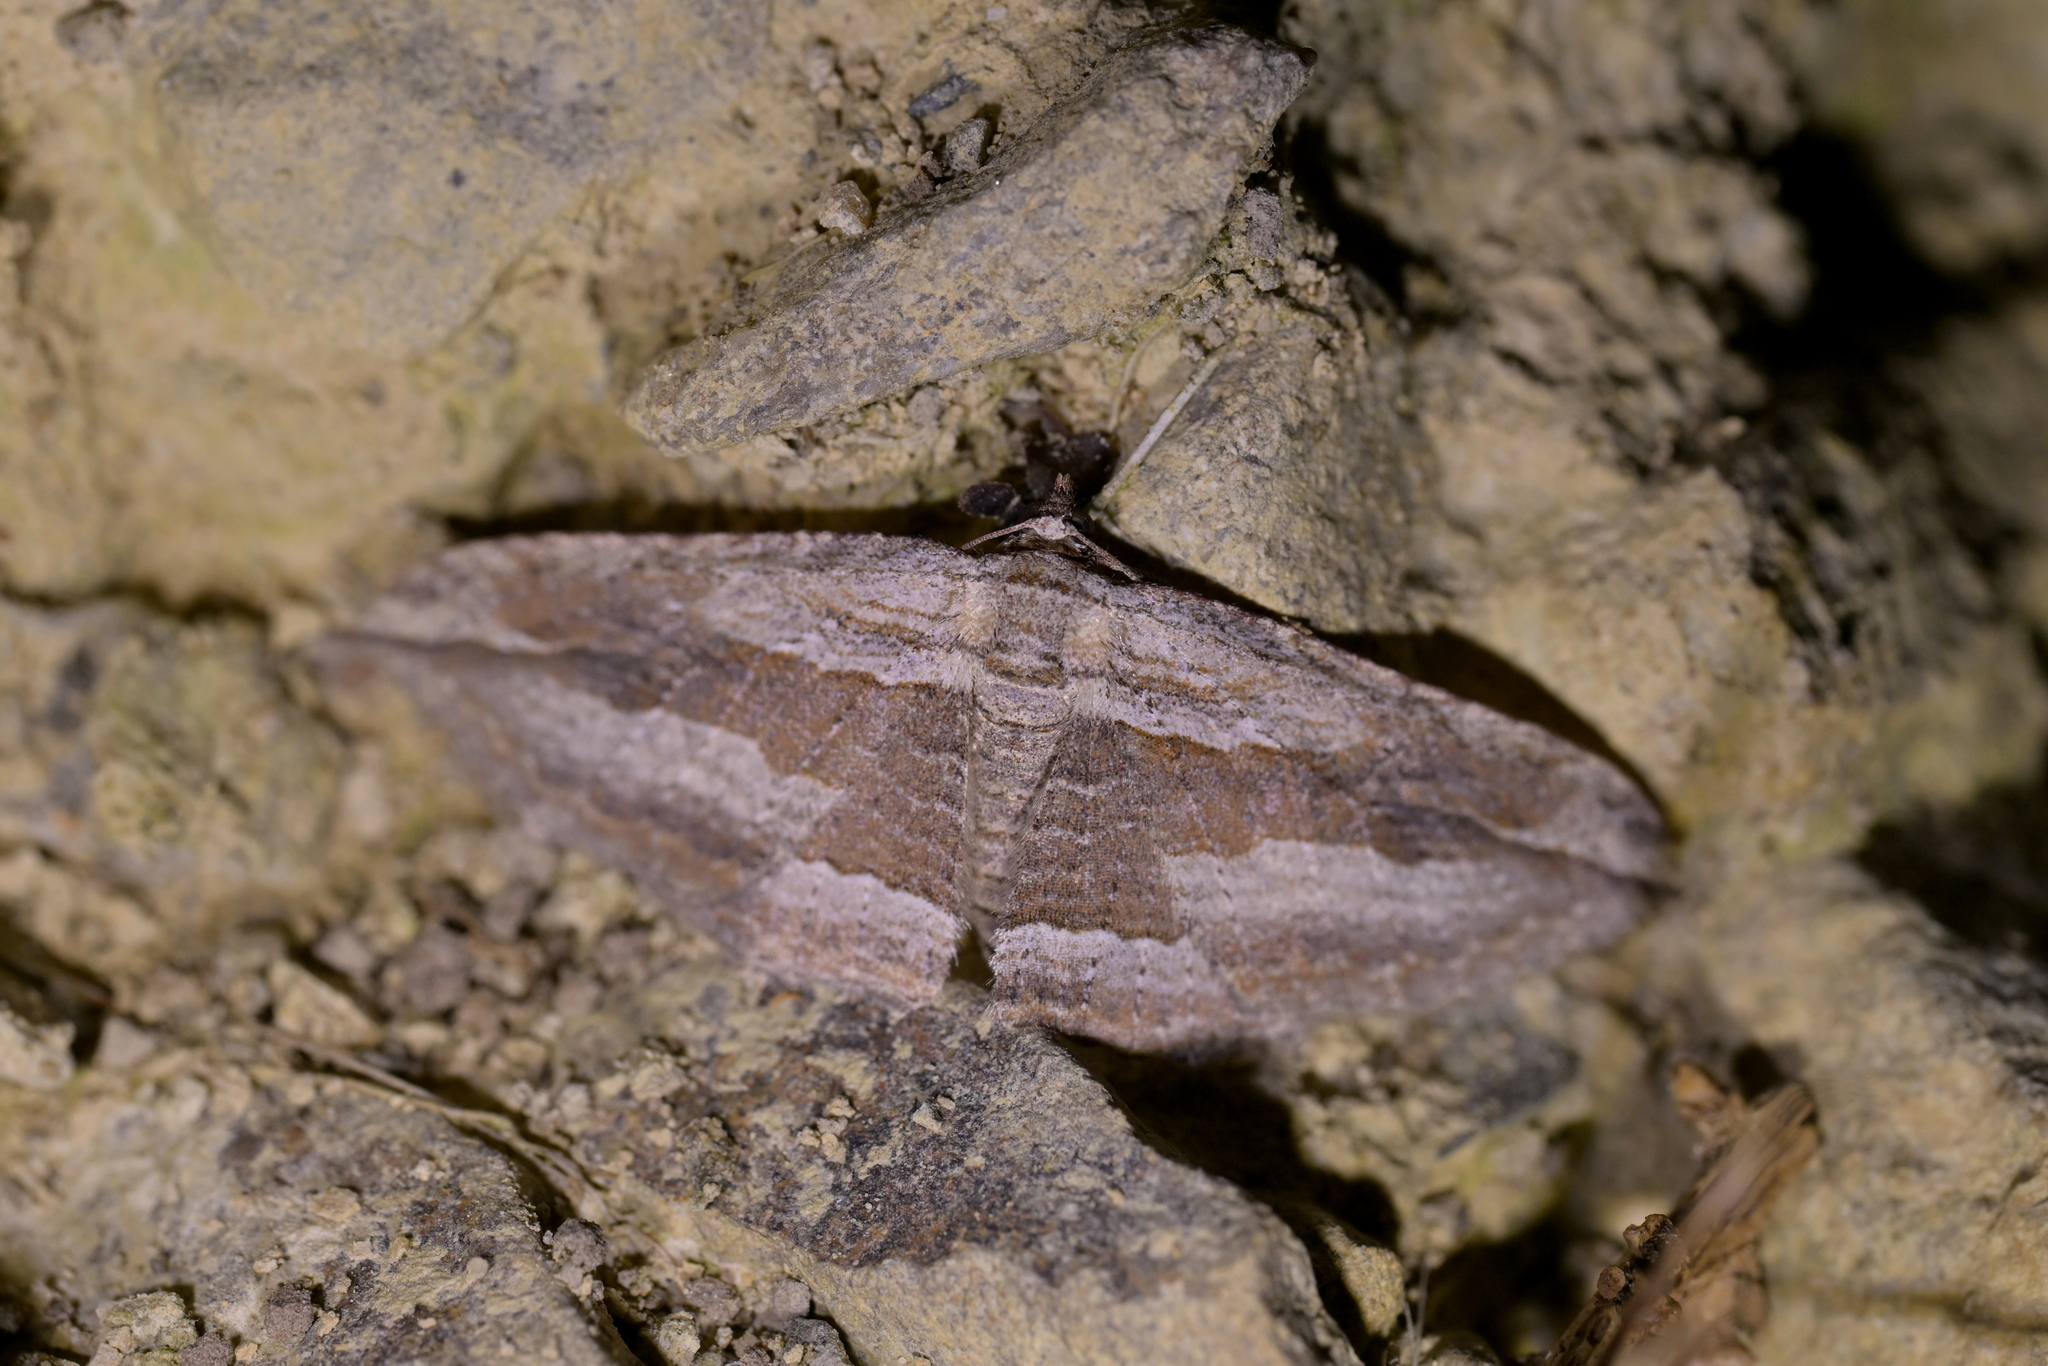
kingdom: Animalia
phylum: Arthropoda
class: Insecta
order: Lepidoptera
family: Geometridae
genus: Austrocidaria
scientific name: Austrocidaria gobiata
